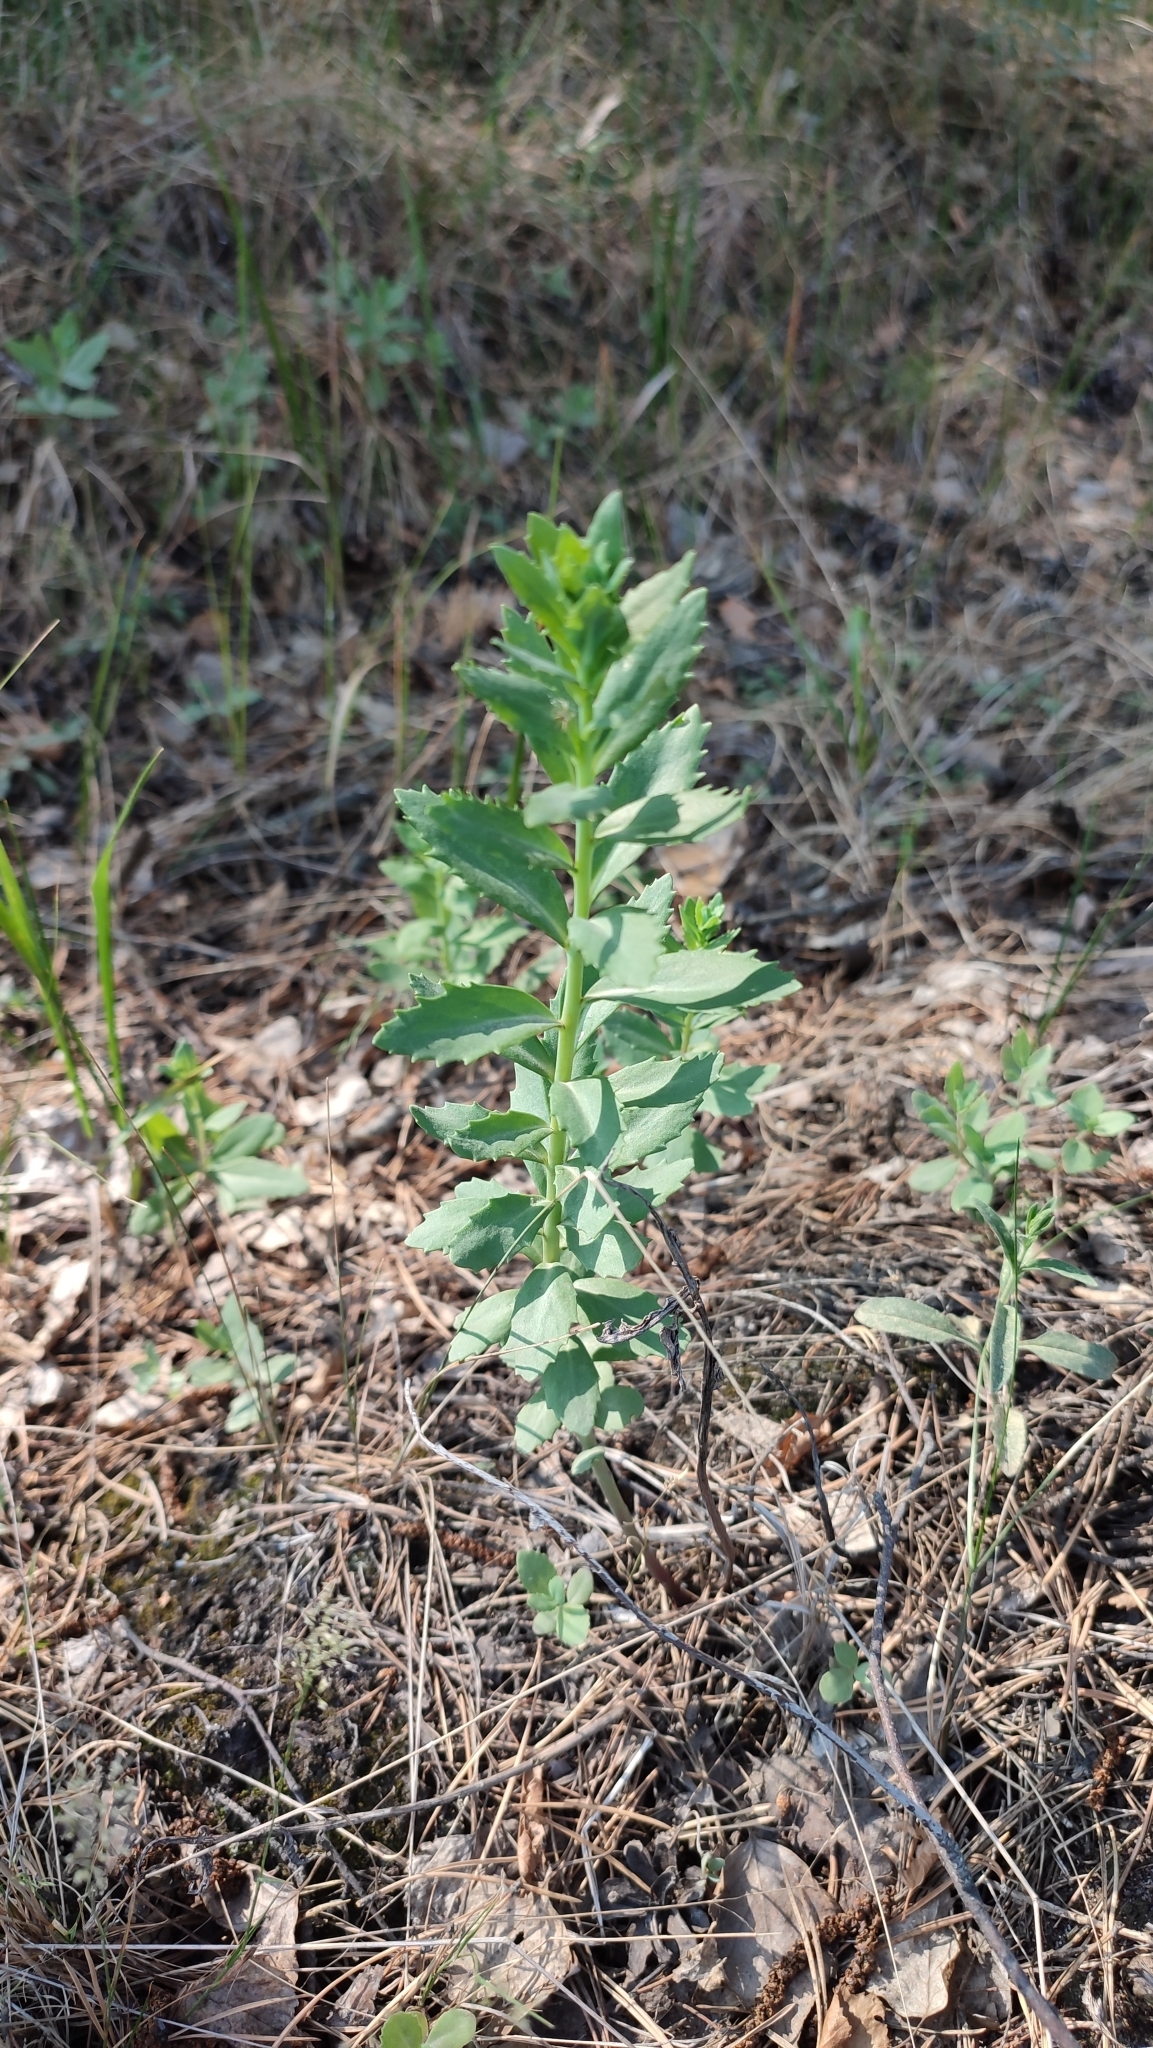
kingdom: Plantae
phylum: Tracheophyta
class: Magnoliopsida
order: Saxifragales
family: Crassulaceae
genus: Hylotelephium
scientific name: Hylotelephium telephium
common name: Live-forever
